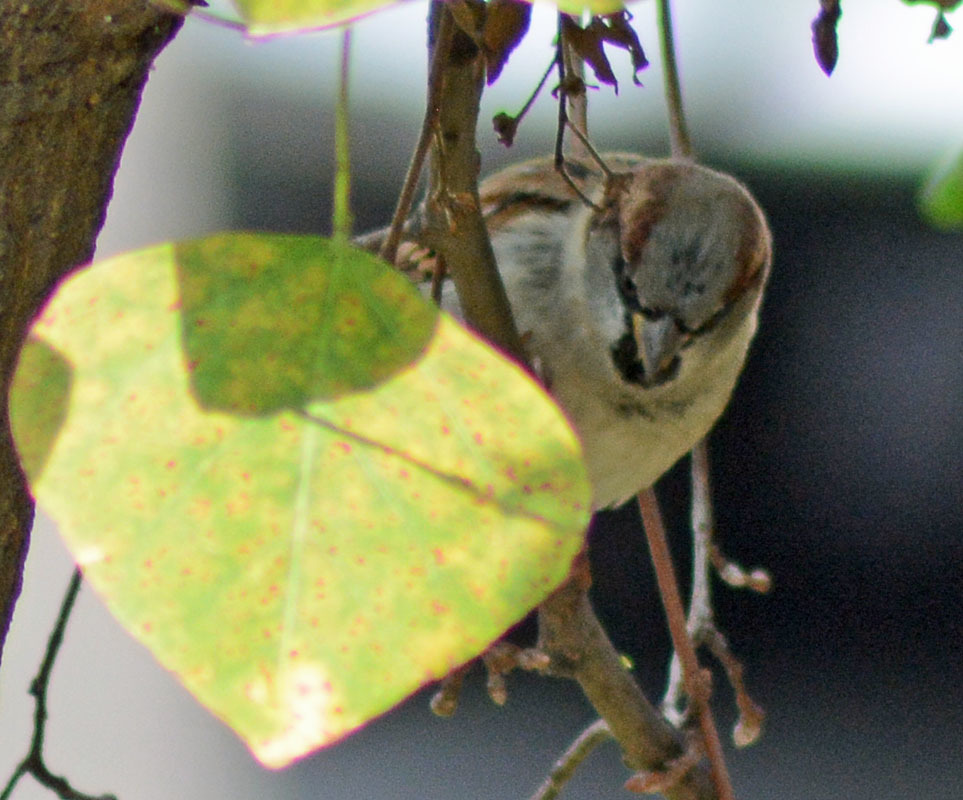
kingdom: Animalia
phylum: Chordata
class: Aves
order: Passeriformes
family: Passeridae
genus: Passer
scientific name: Passer domesticus
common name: House sparrow
